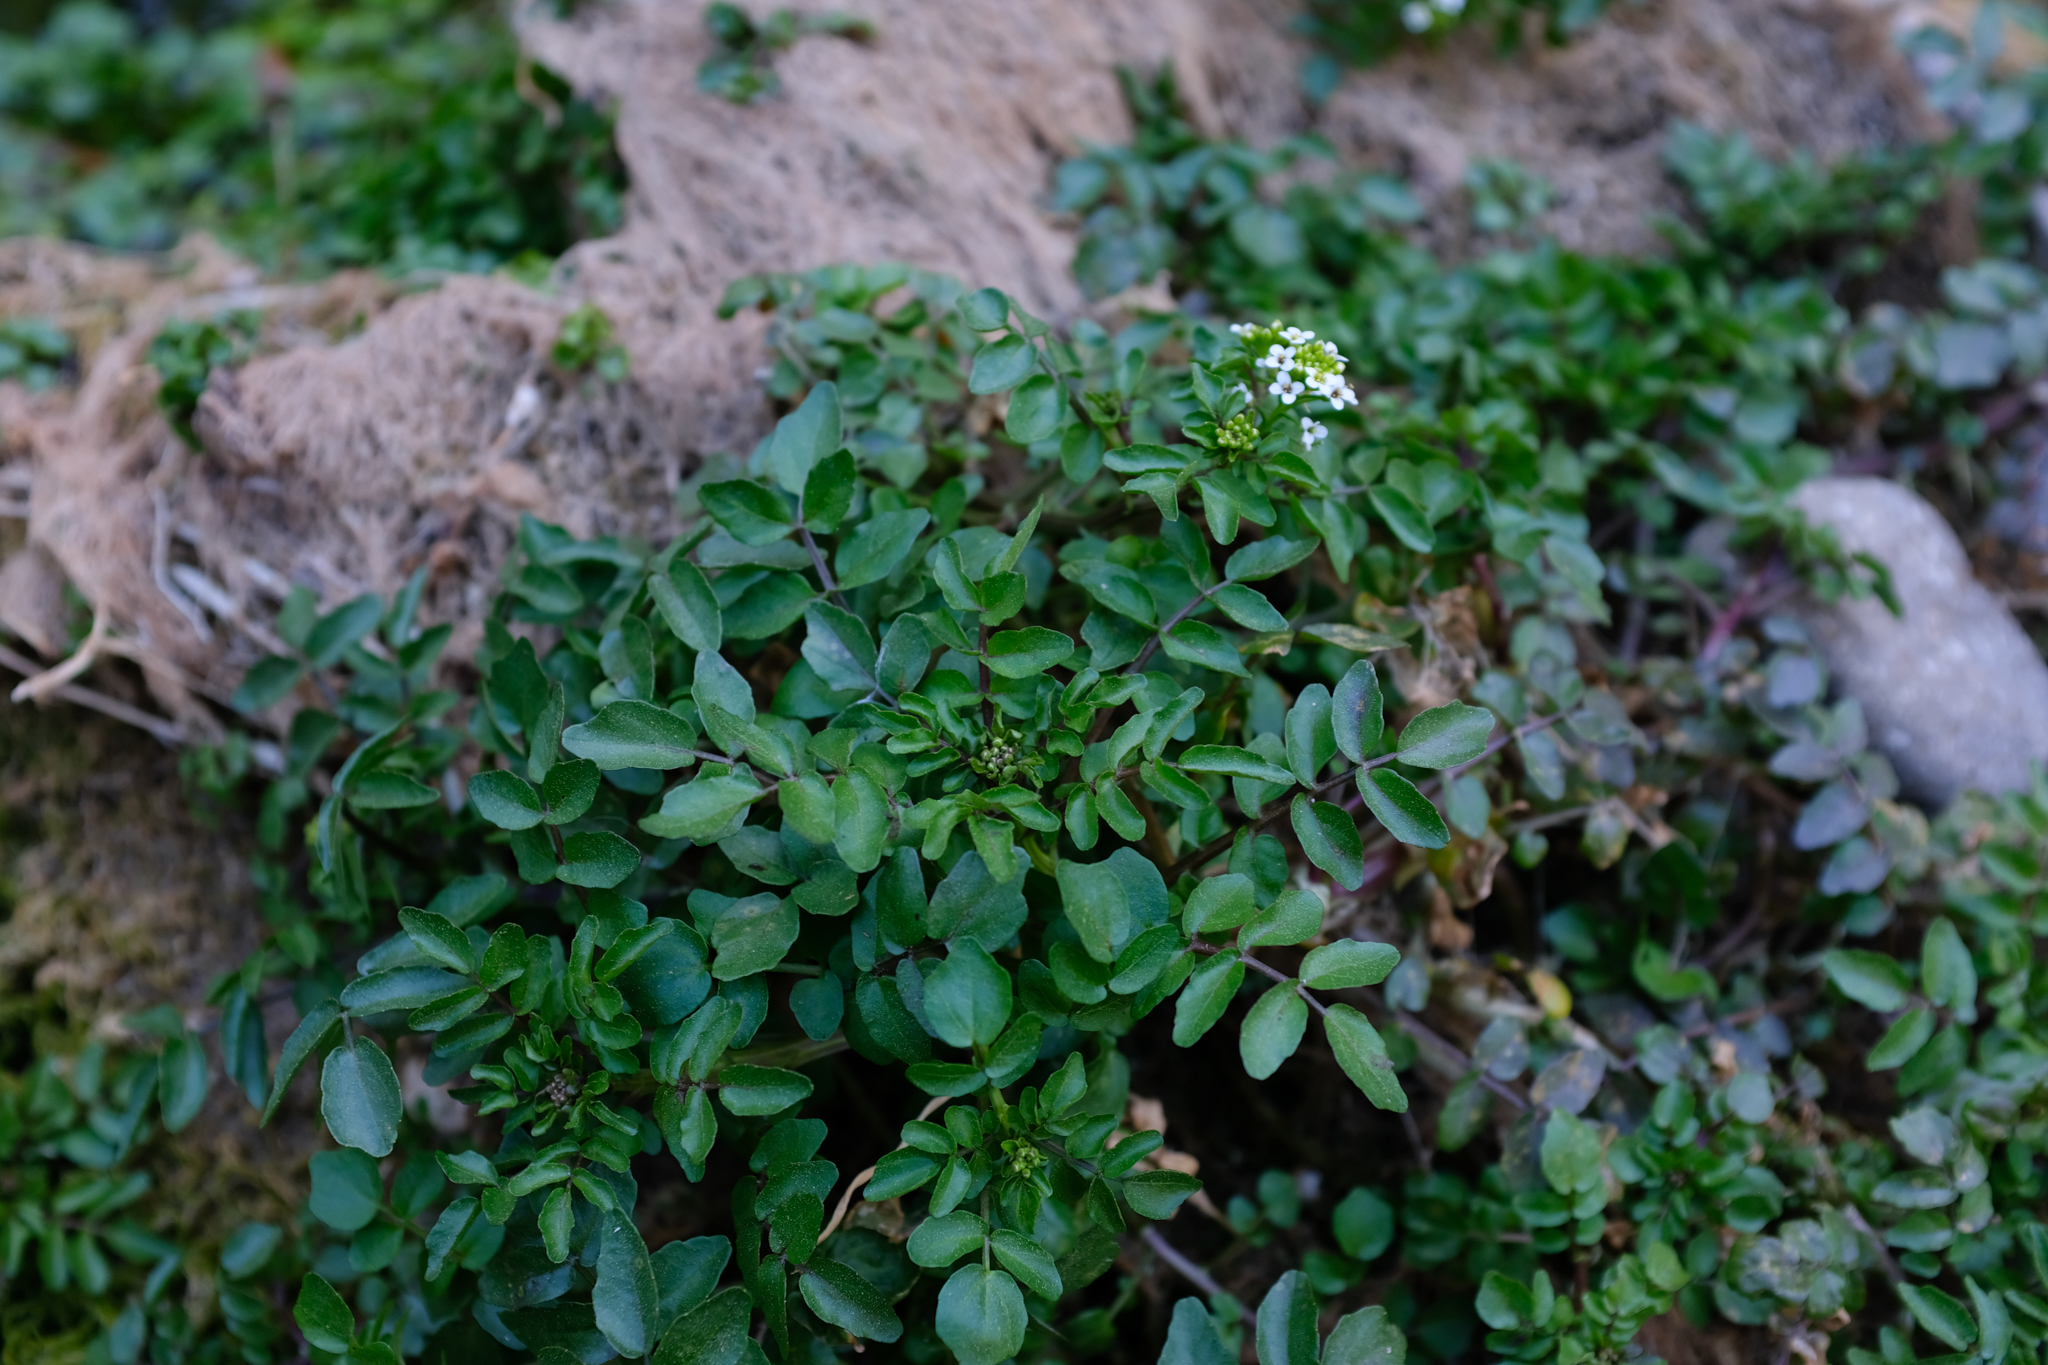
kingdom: Plantae
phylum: Tracheophyta
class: Magnoliopsida
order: Brassicales
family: Brassicaceae
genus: Nasturtium
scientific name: Nasturtium officinale
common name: Watercress
